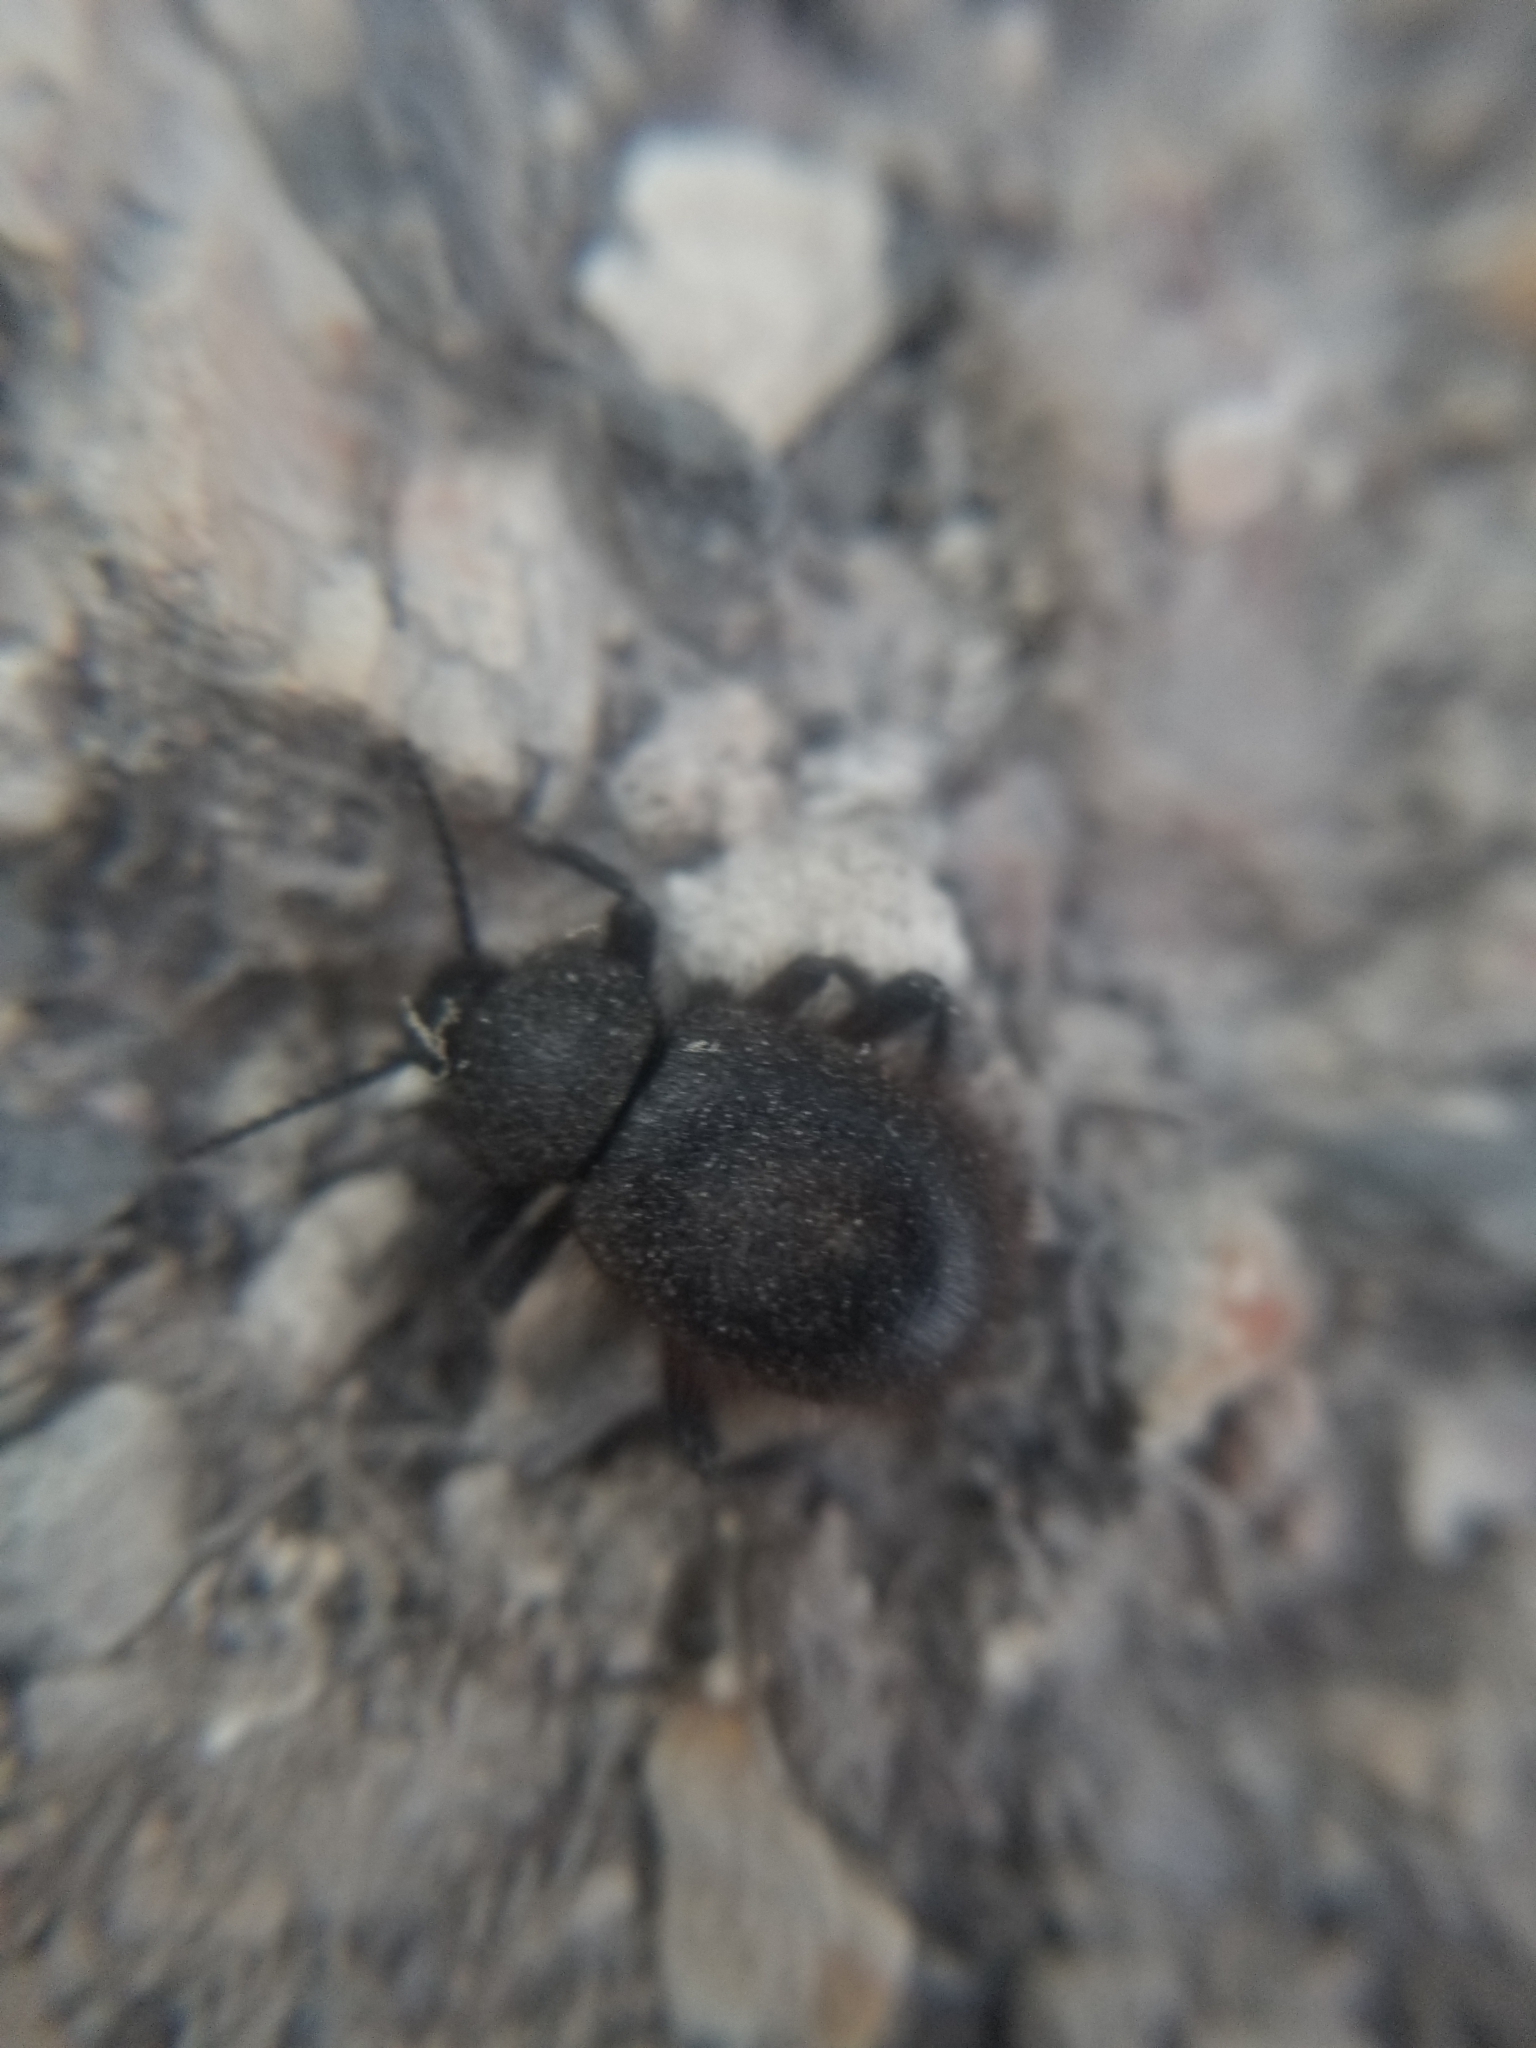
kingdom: Animalia
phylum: Arthropoda
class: Insecta
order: Coleoptera
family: Tenebrionidae
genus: Eleodes
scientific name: Eleodes osculans
